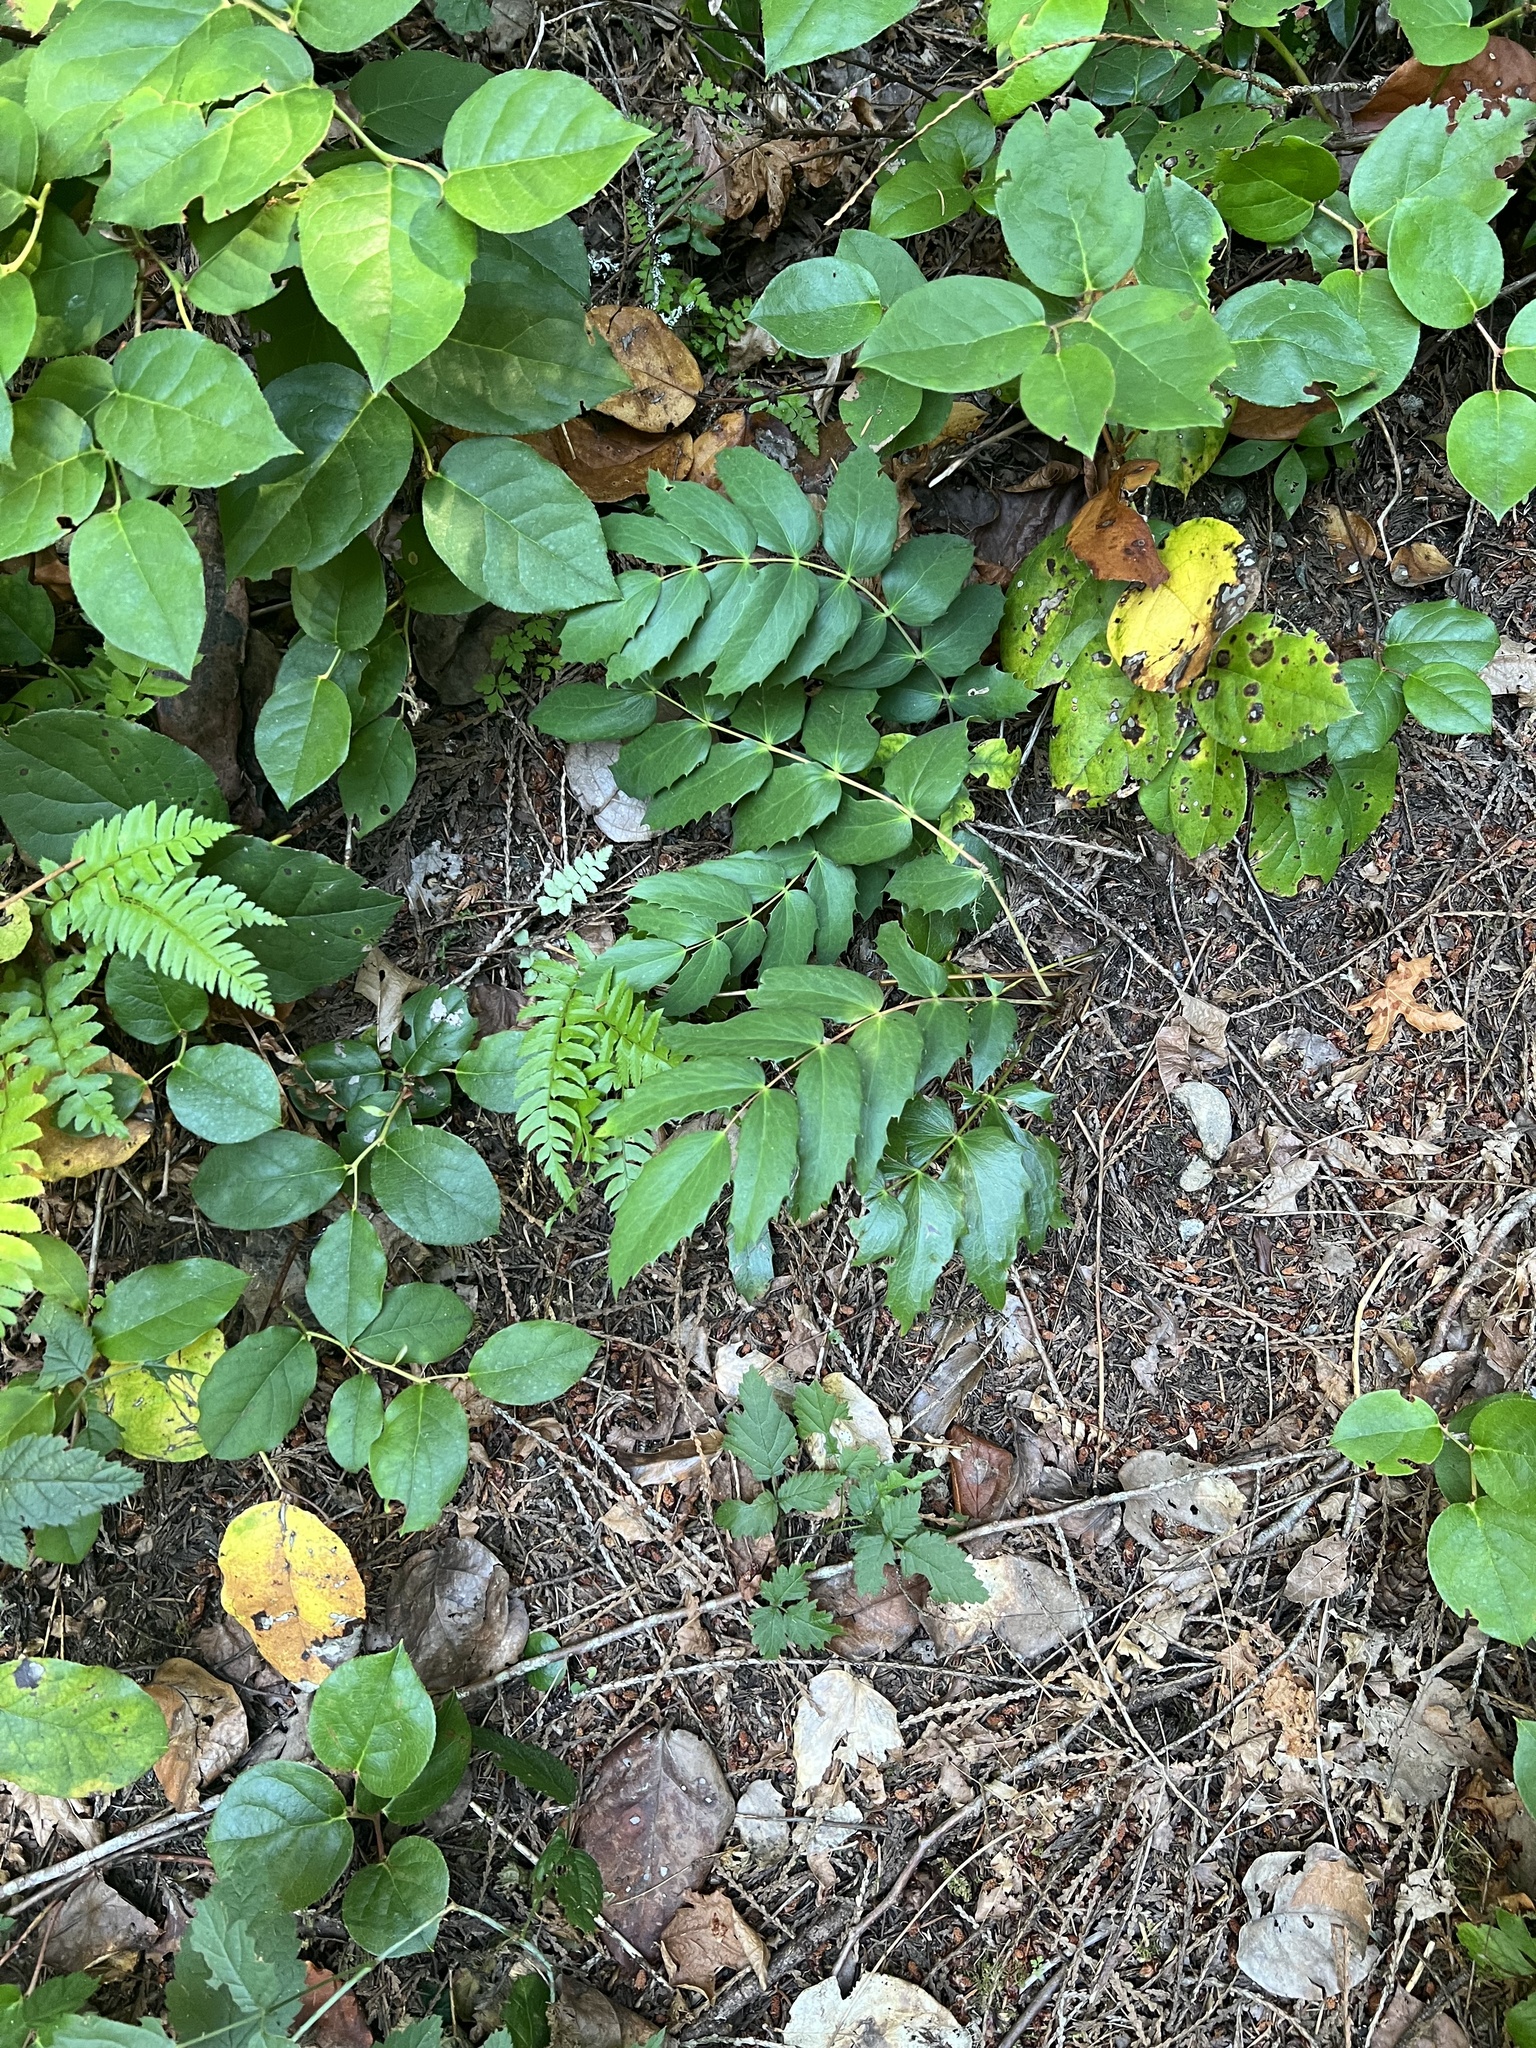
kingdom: Plantae
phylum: Tracheophyta
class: Magnoliopsida
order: Ranunculales
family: Berberidaceae
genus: Mahonia
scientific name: Mahonia nervosa
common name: Cascade oregon-grape
